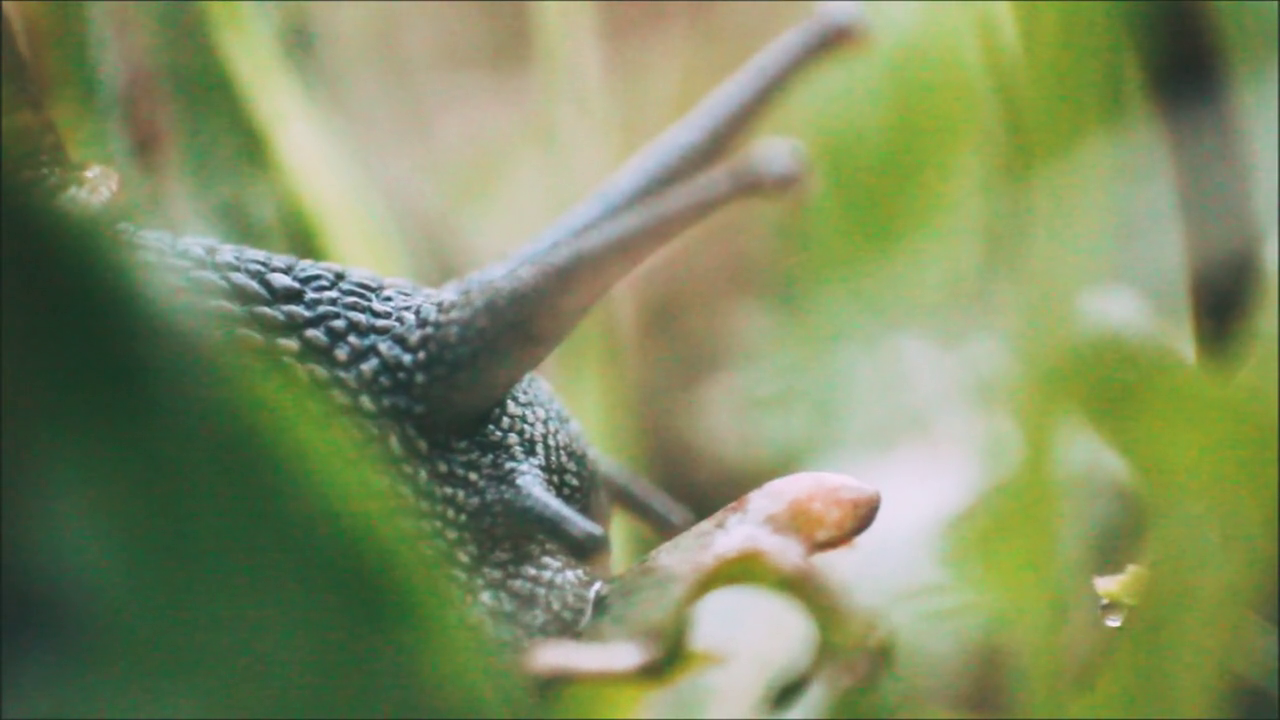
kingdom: Animalia
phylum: Mollusca
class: Gastropoda
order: Stylommatophora
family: Helicidae
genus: Cornu
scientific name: Cornu aspersum
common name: Brown garden snail
